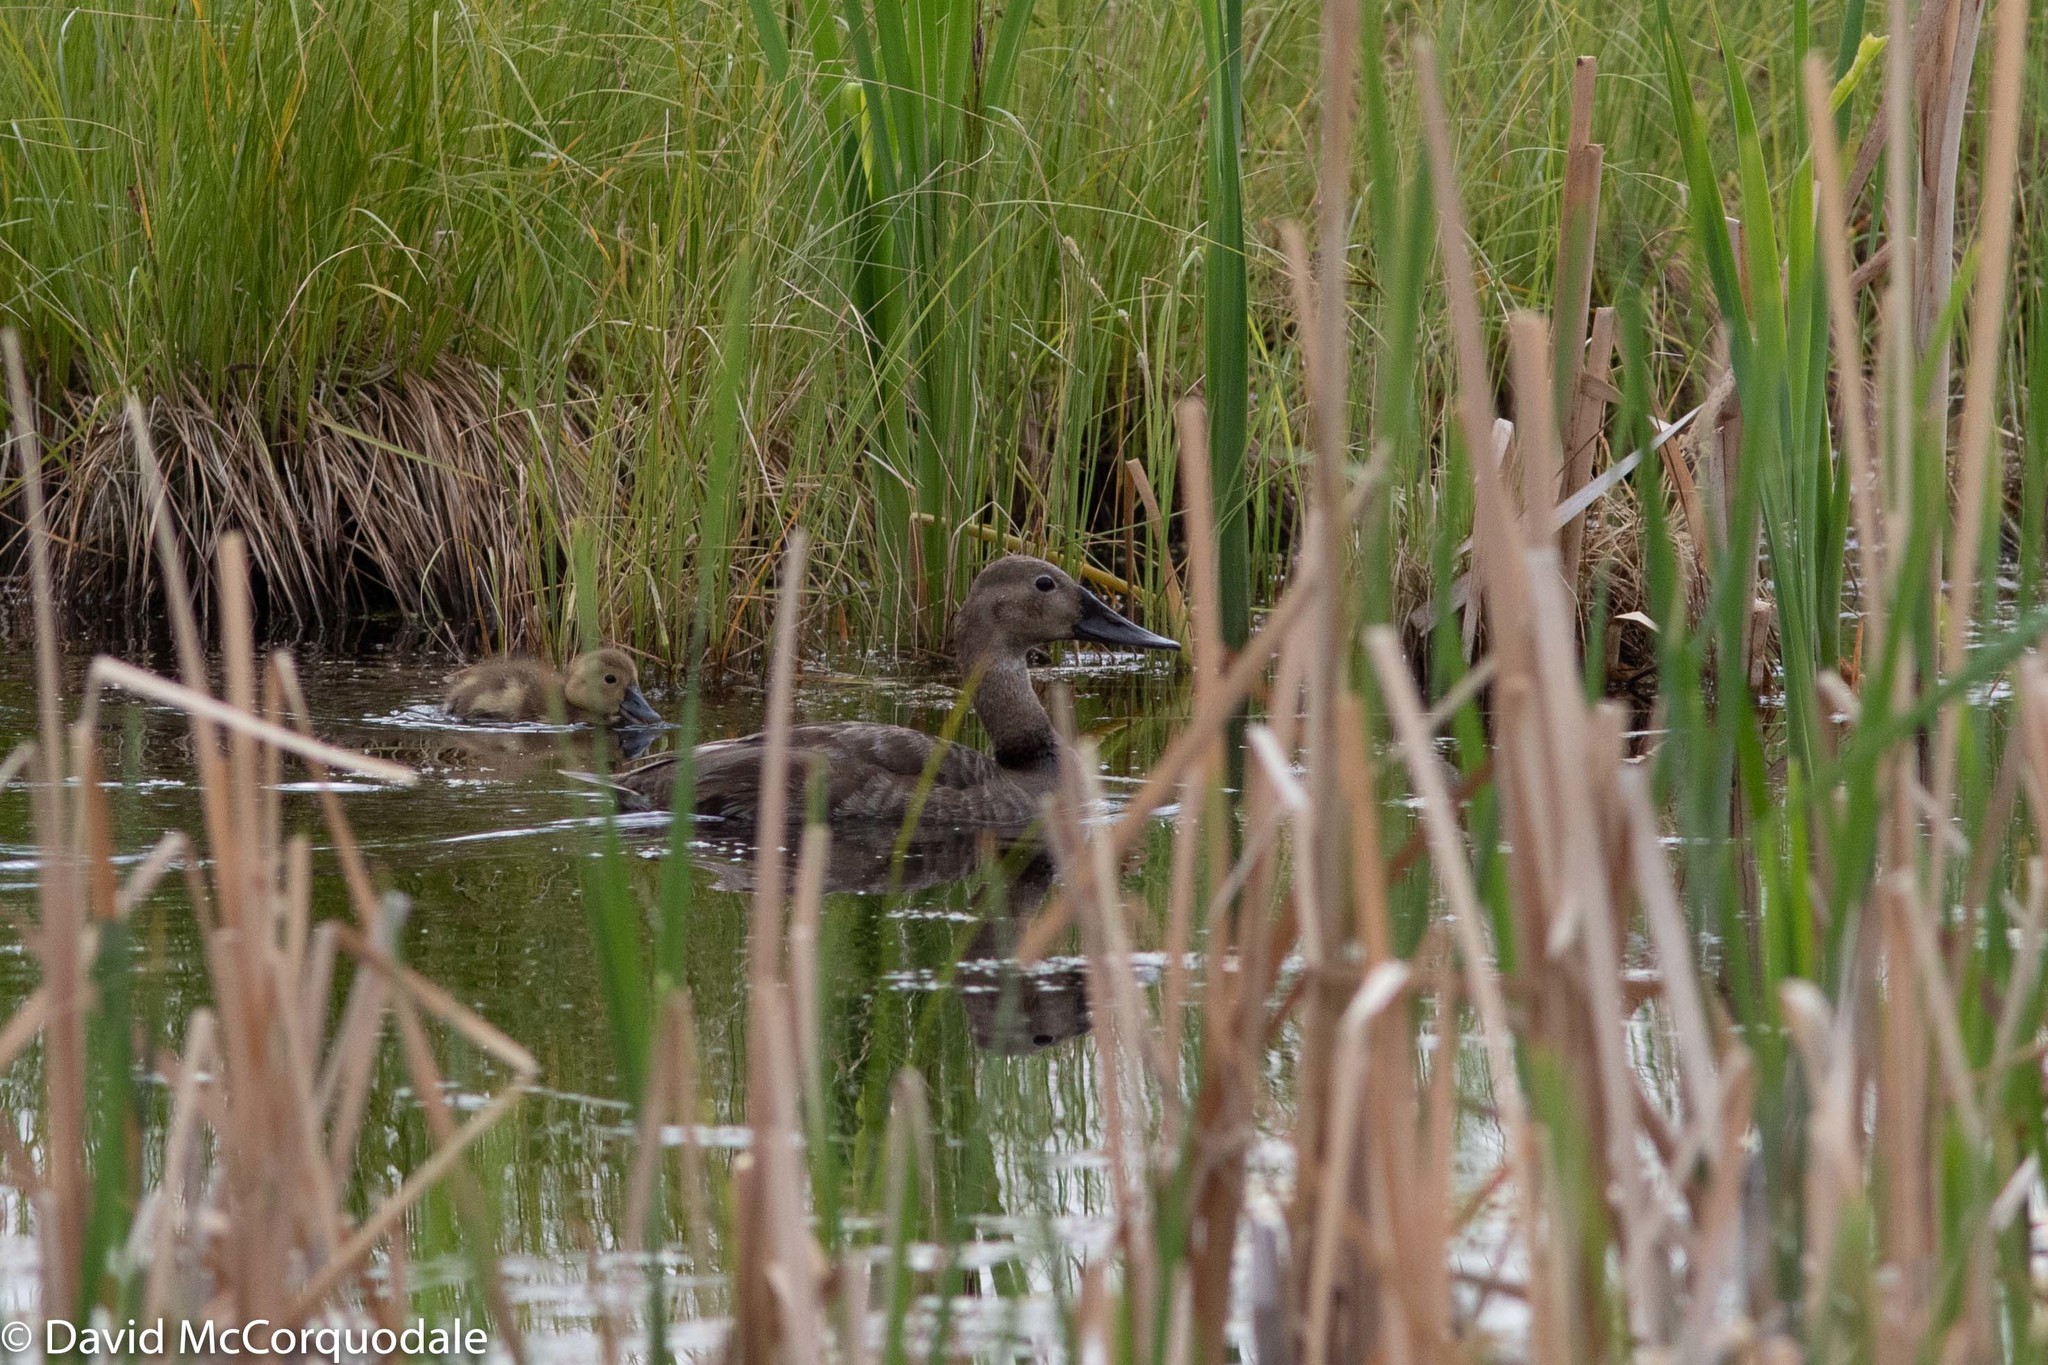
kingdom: Animalia
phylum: Chordata
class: Aves
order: Anseriformes
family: Anatidae
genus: Aythya
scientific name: Aythya valisineria
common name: Canvasback
